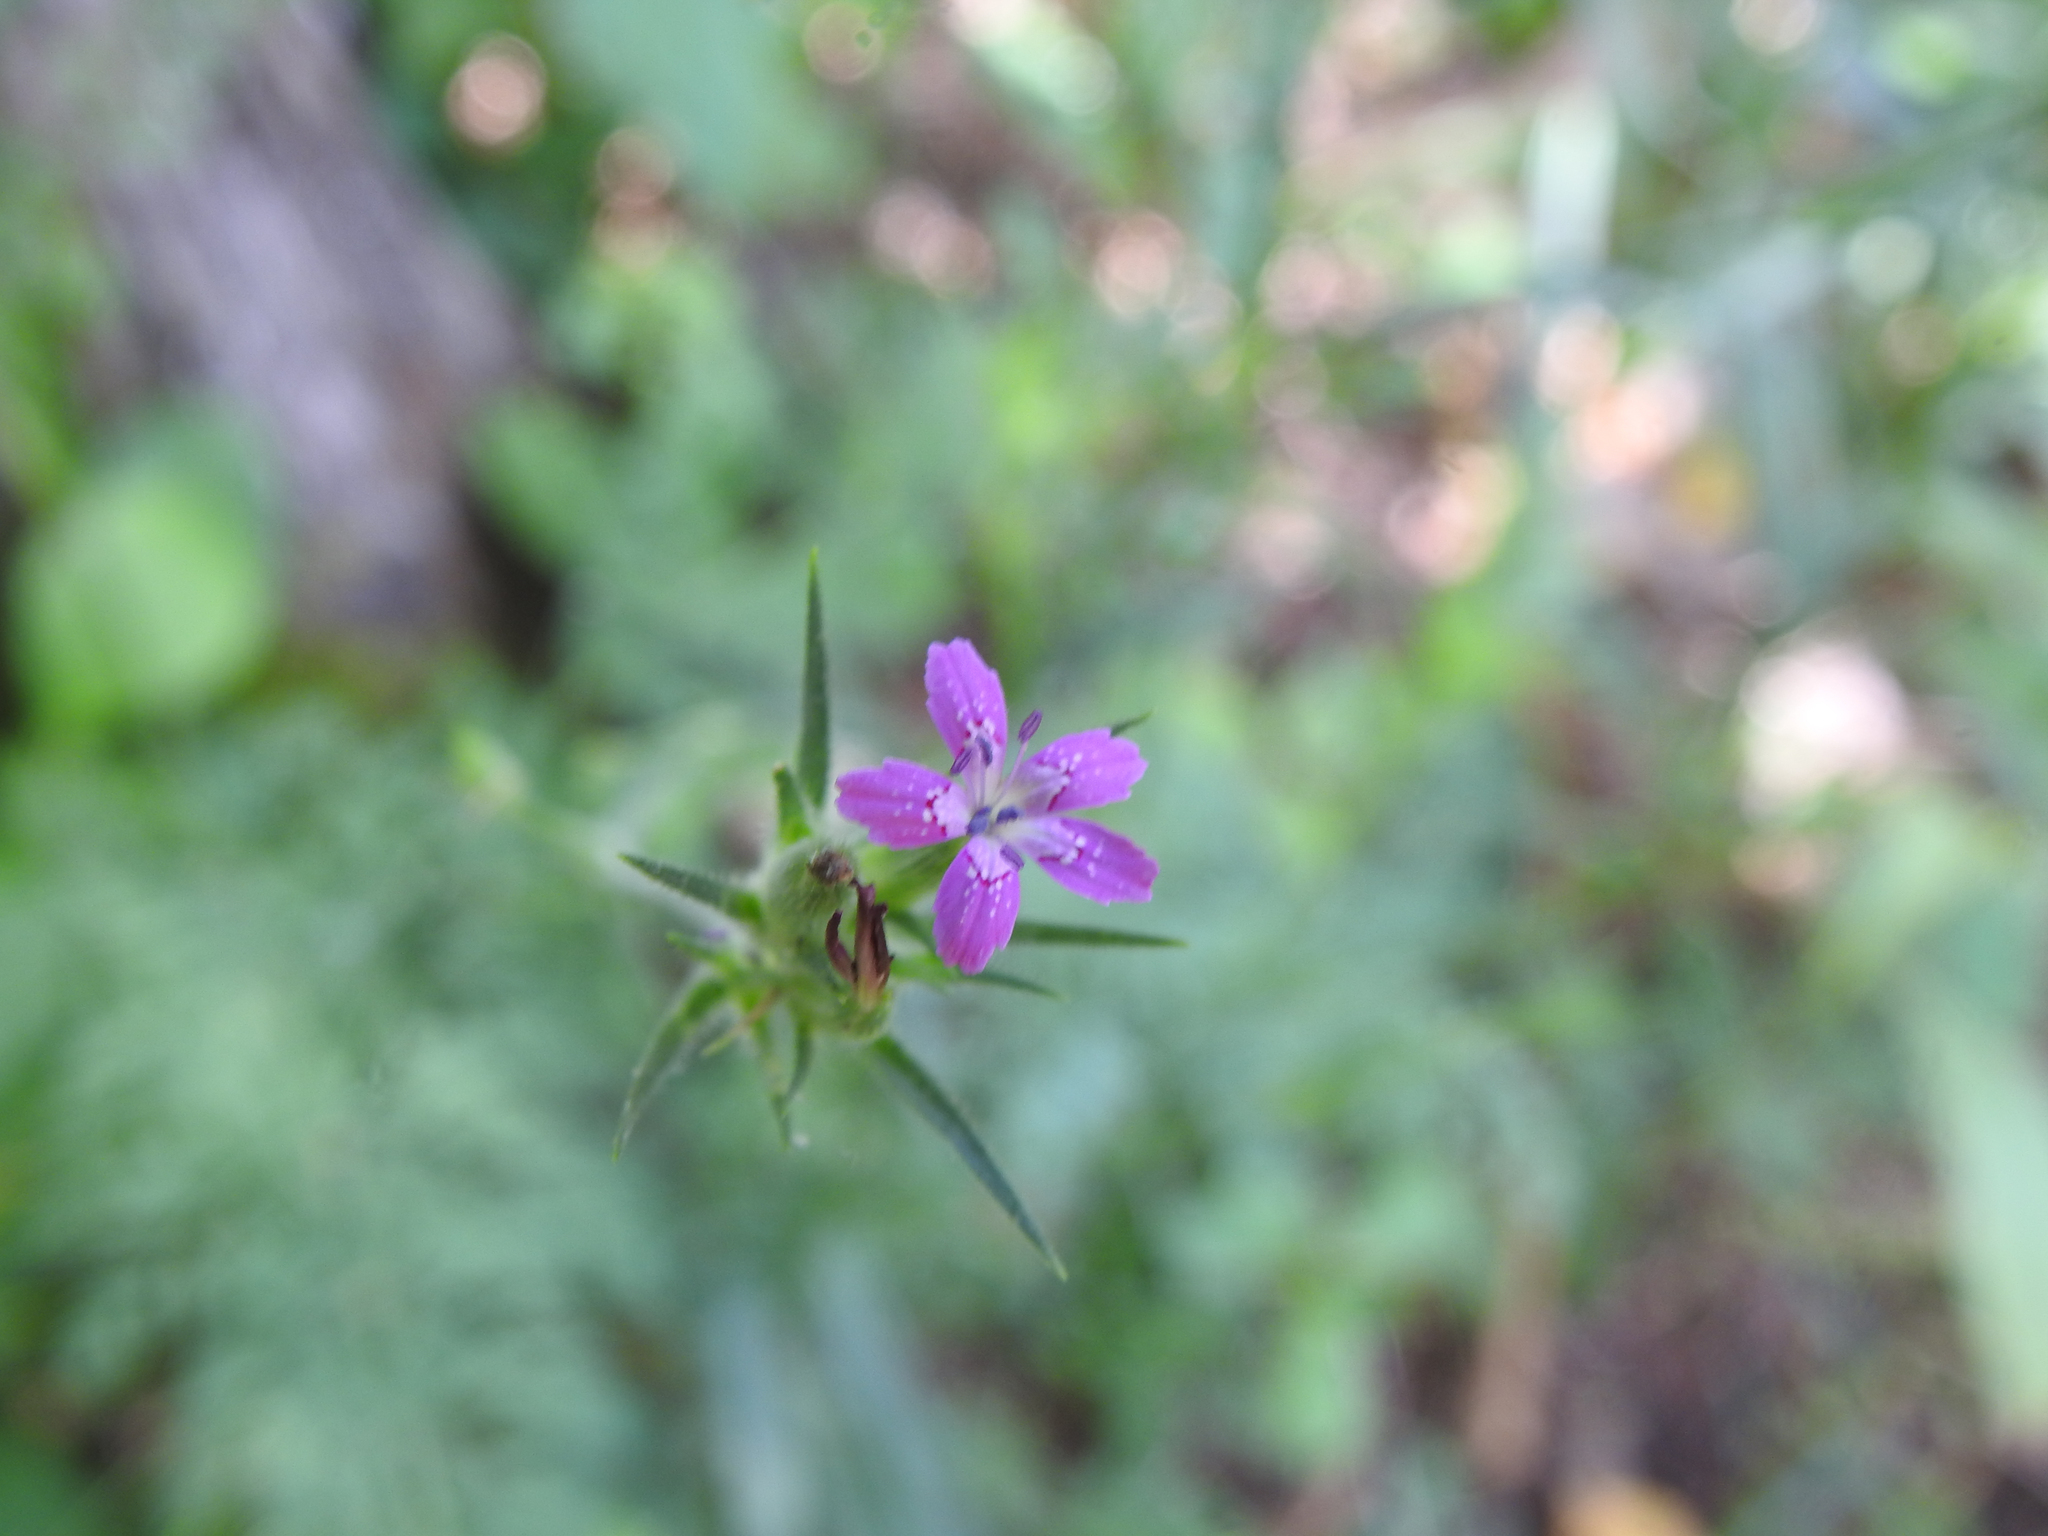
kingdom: Plantae
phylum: Tracheophyta
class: Magnoliopsida
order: Caryophyllales
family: Caryophyllaceae
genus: Dianthus
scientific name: Dianthus armeria
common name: Deptford pink
